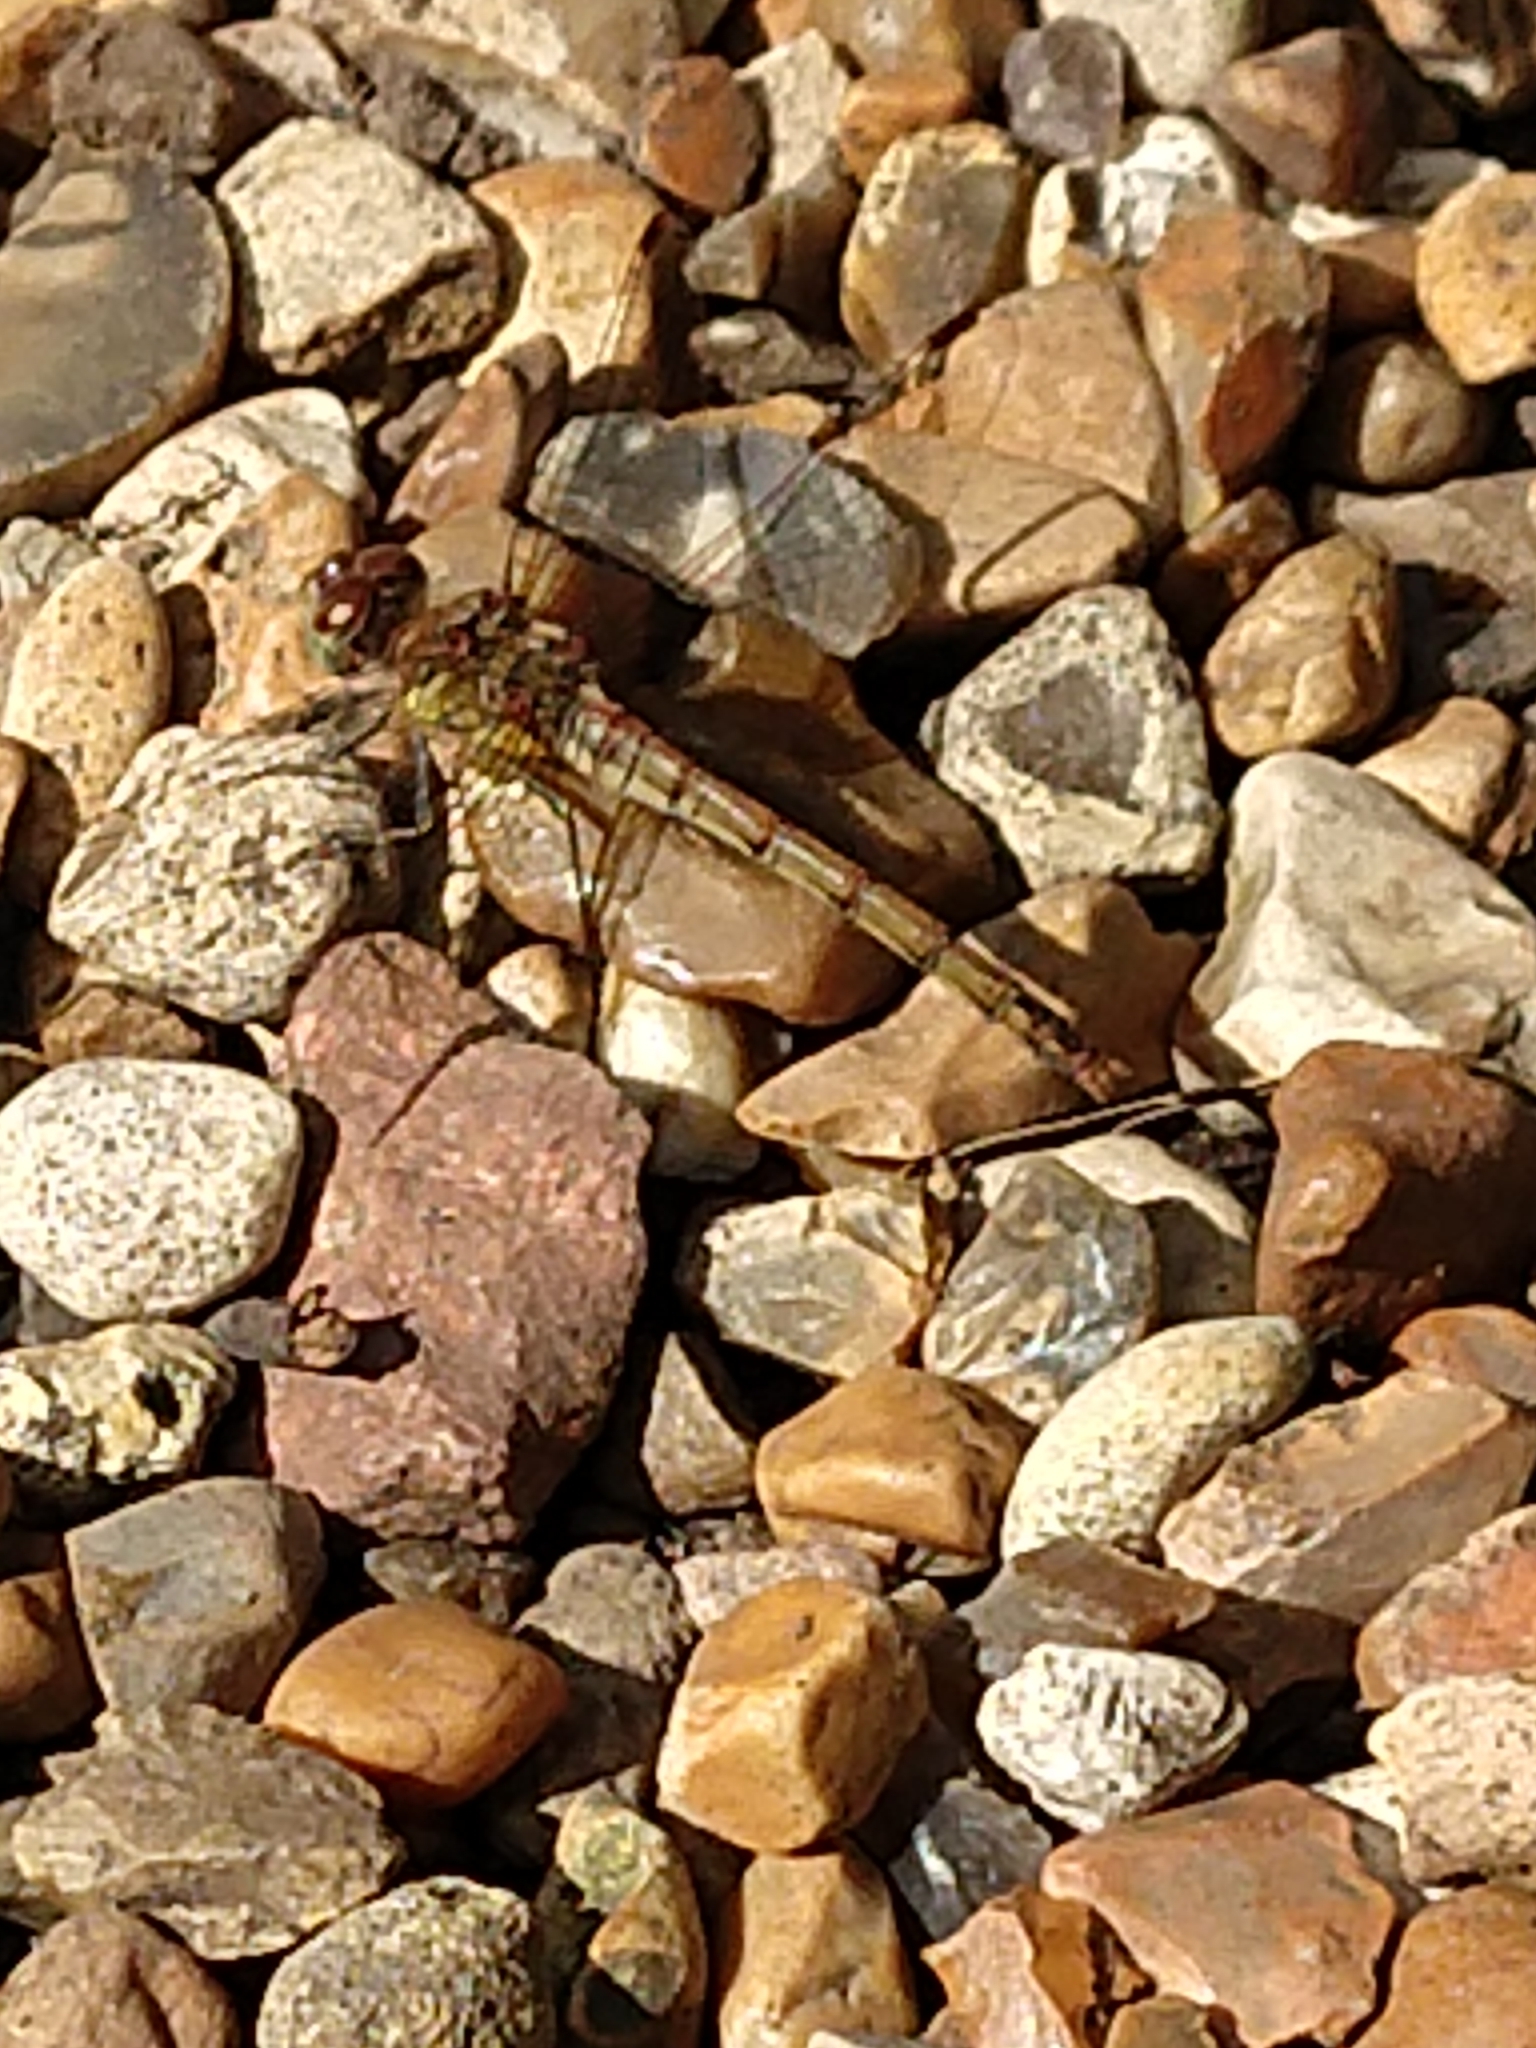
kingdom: Animalia
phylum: Arthropoda
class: Insecta
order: Odonata
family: Libellulidae
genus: Sympetrum
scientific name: Sympetrum striolatum
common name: Common darter
